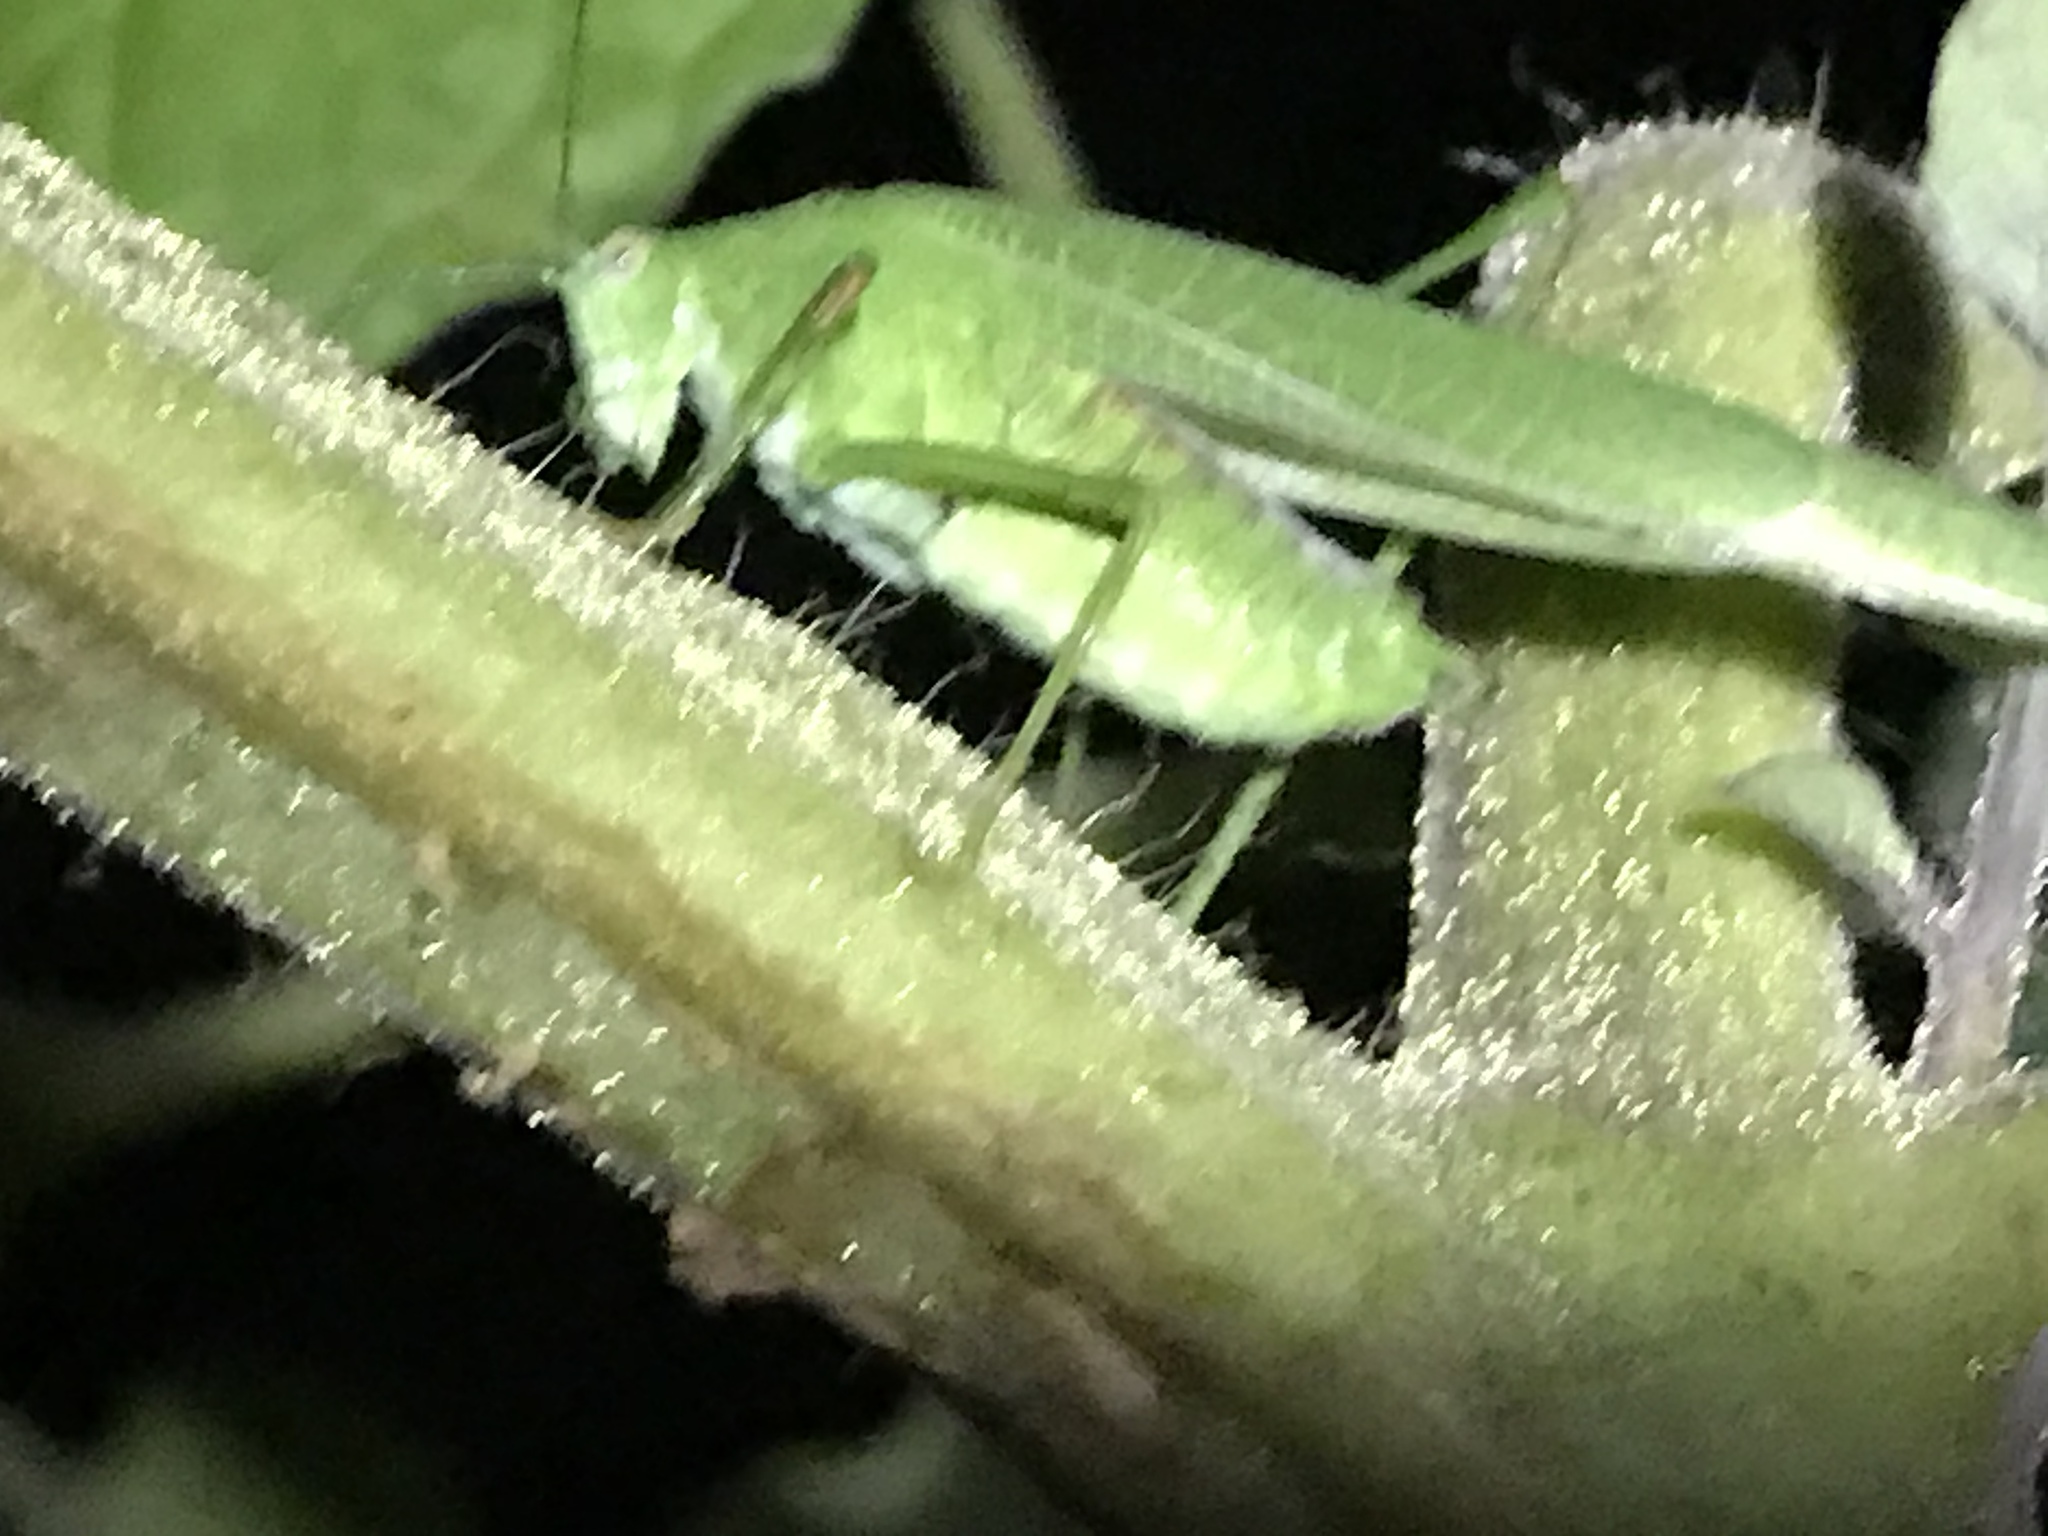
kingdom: Animalia
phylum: Arthropoda
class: Insecta
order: Orthoptera
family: Tettigoniidae
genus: Phaneroptera
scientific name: Phaneroptera nana
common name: Southern sickle bush-cricket
